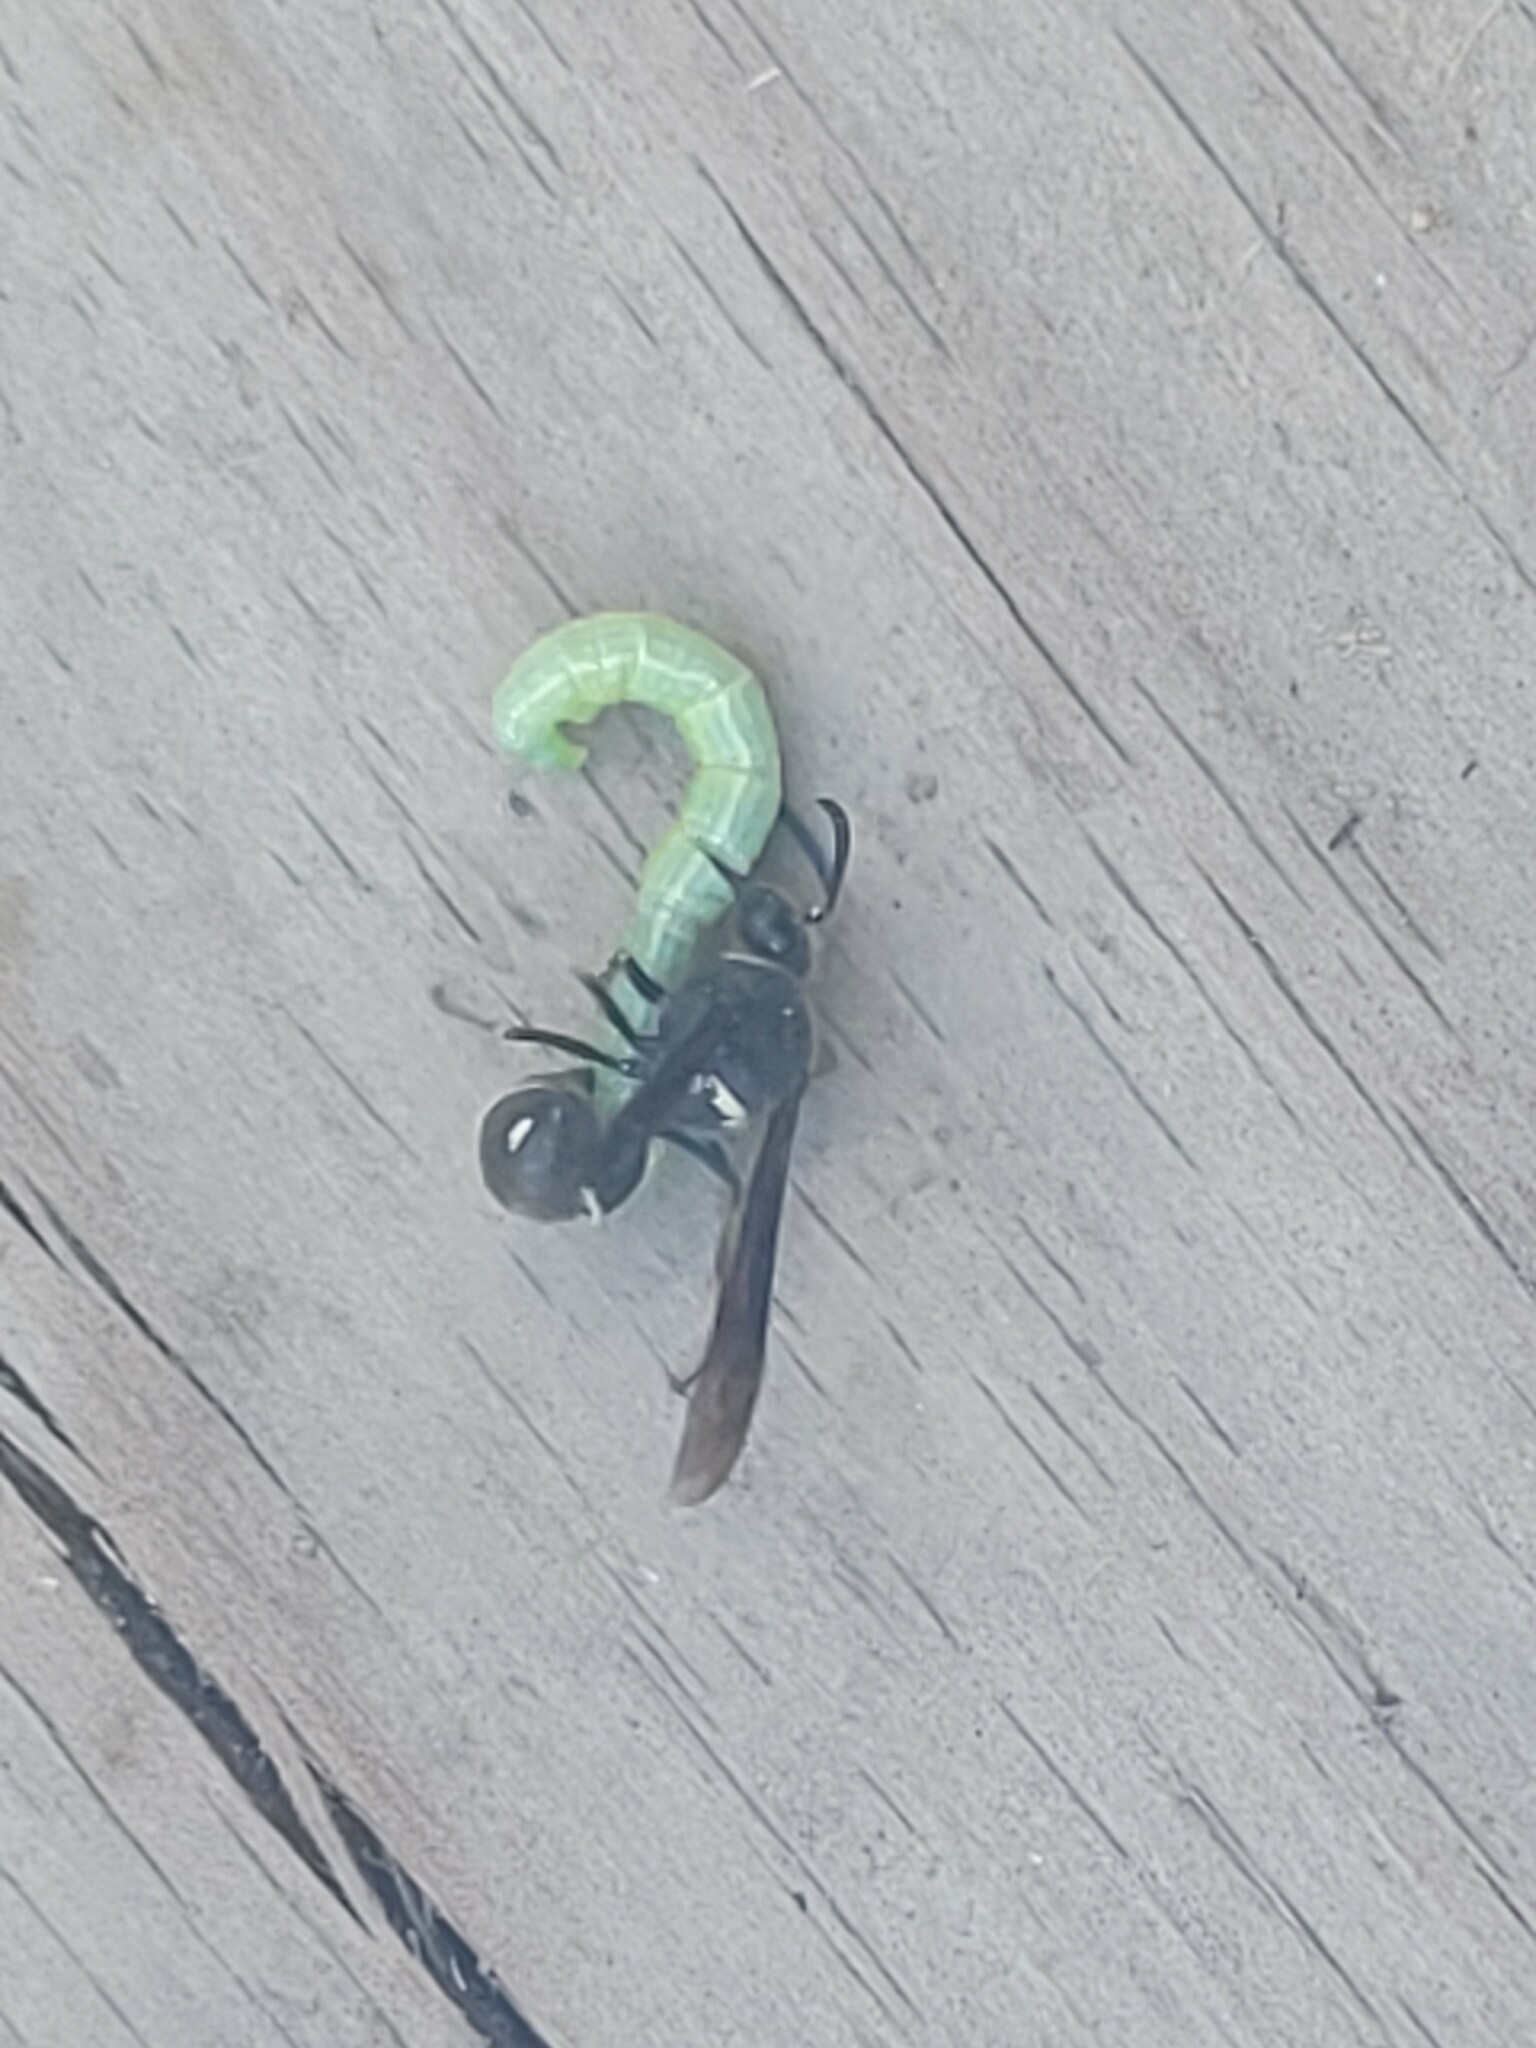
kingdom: Animalia
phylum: Arthropoda
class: Insecta
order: Hymenoptera
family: Vespidae
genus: Eumenes
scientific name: Eumenes fraternus
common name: Fraternal potter wasp
